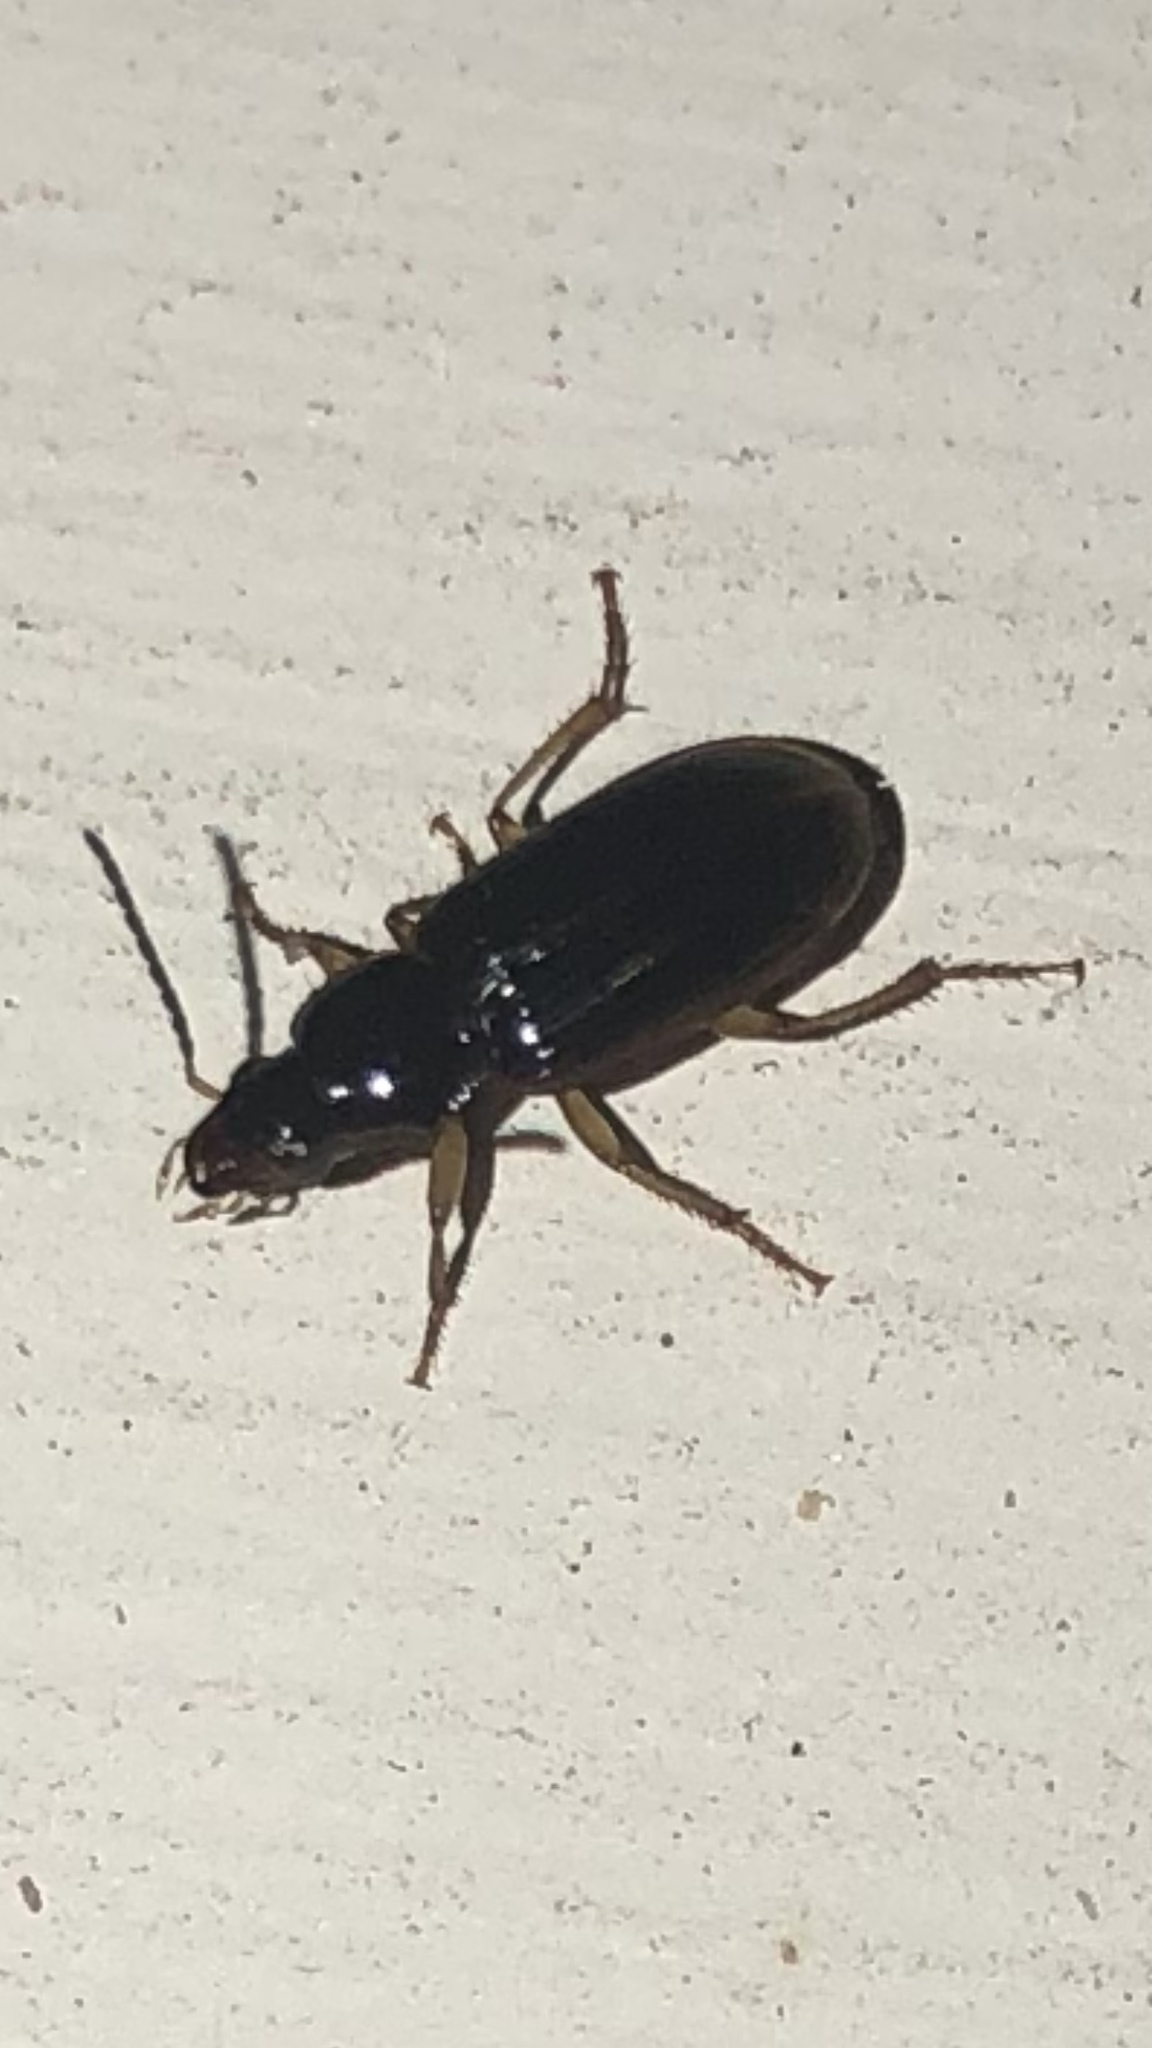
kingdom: Animalia
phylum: Arthropoda
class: Insecta
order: Coleoptera
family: Carabidae
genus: Stenolophus
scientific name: Stenolophus ochropezus
